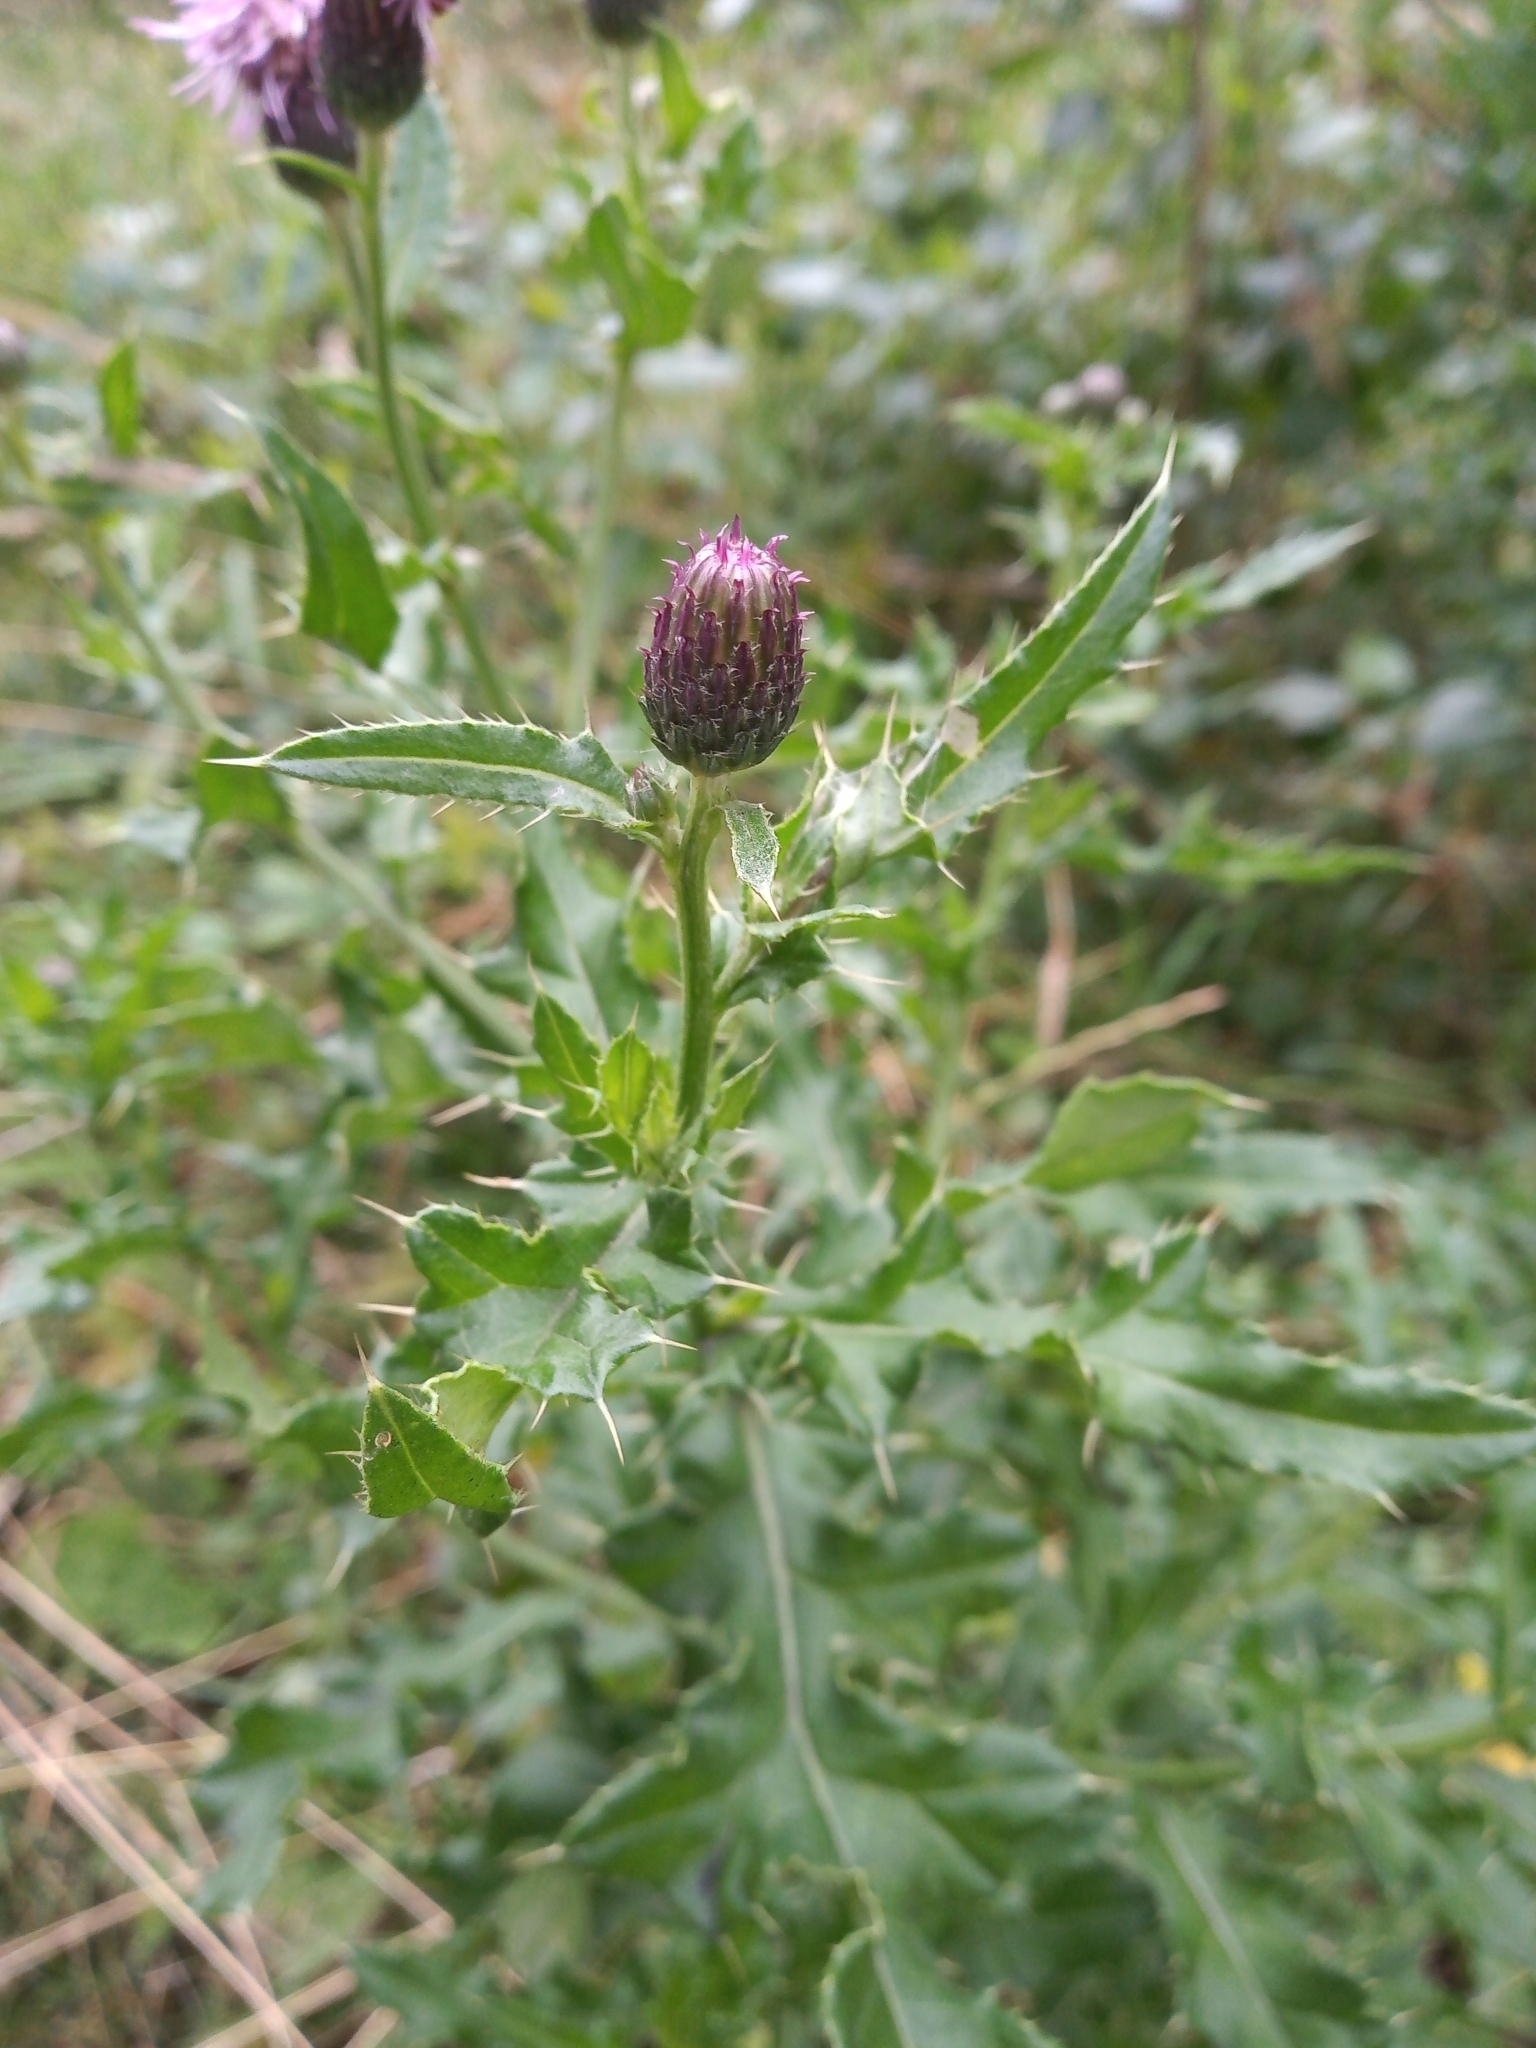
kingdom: Plantae
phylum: Tracheophyta
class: Magnoliopsida
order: Asterales
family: Asteraceae
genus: Cirsium
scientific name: Cirsium arvense
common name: Creeping thistle
